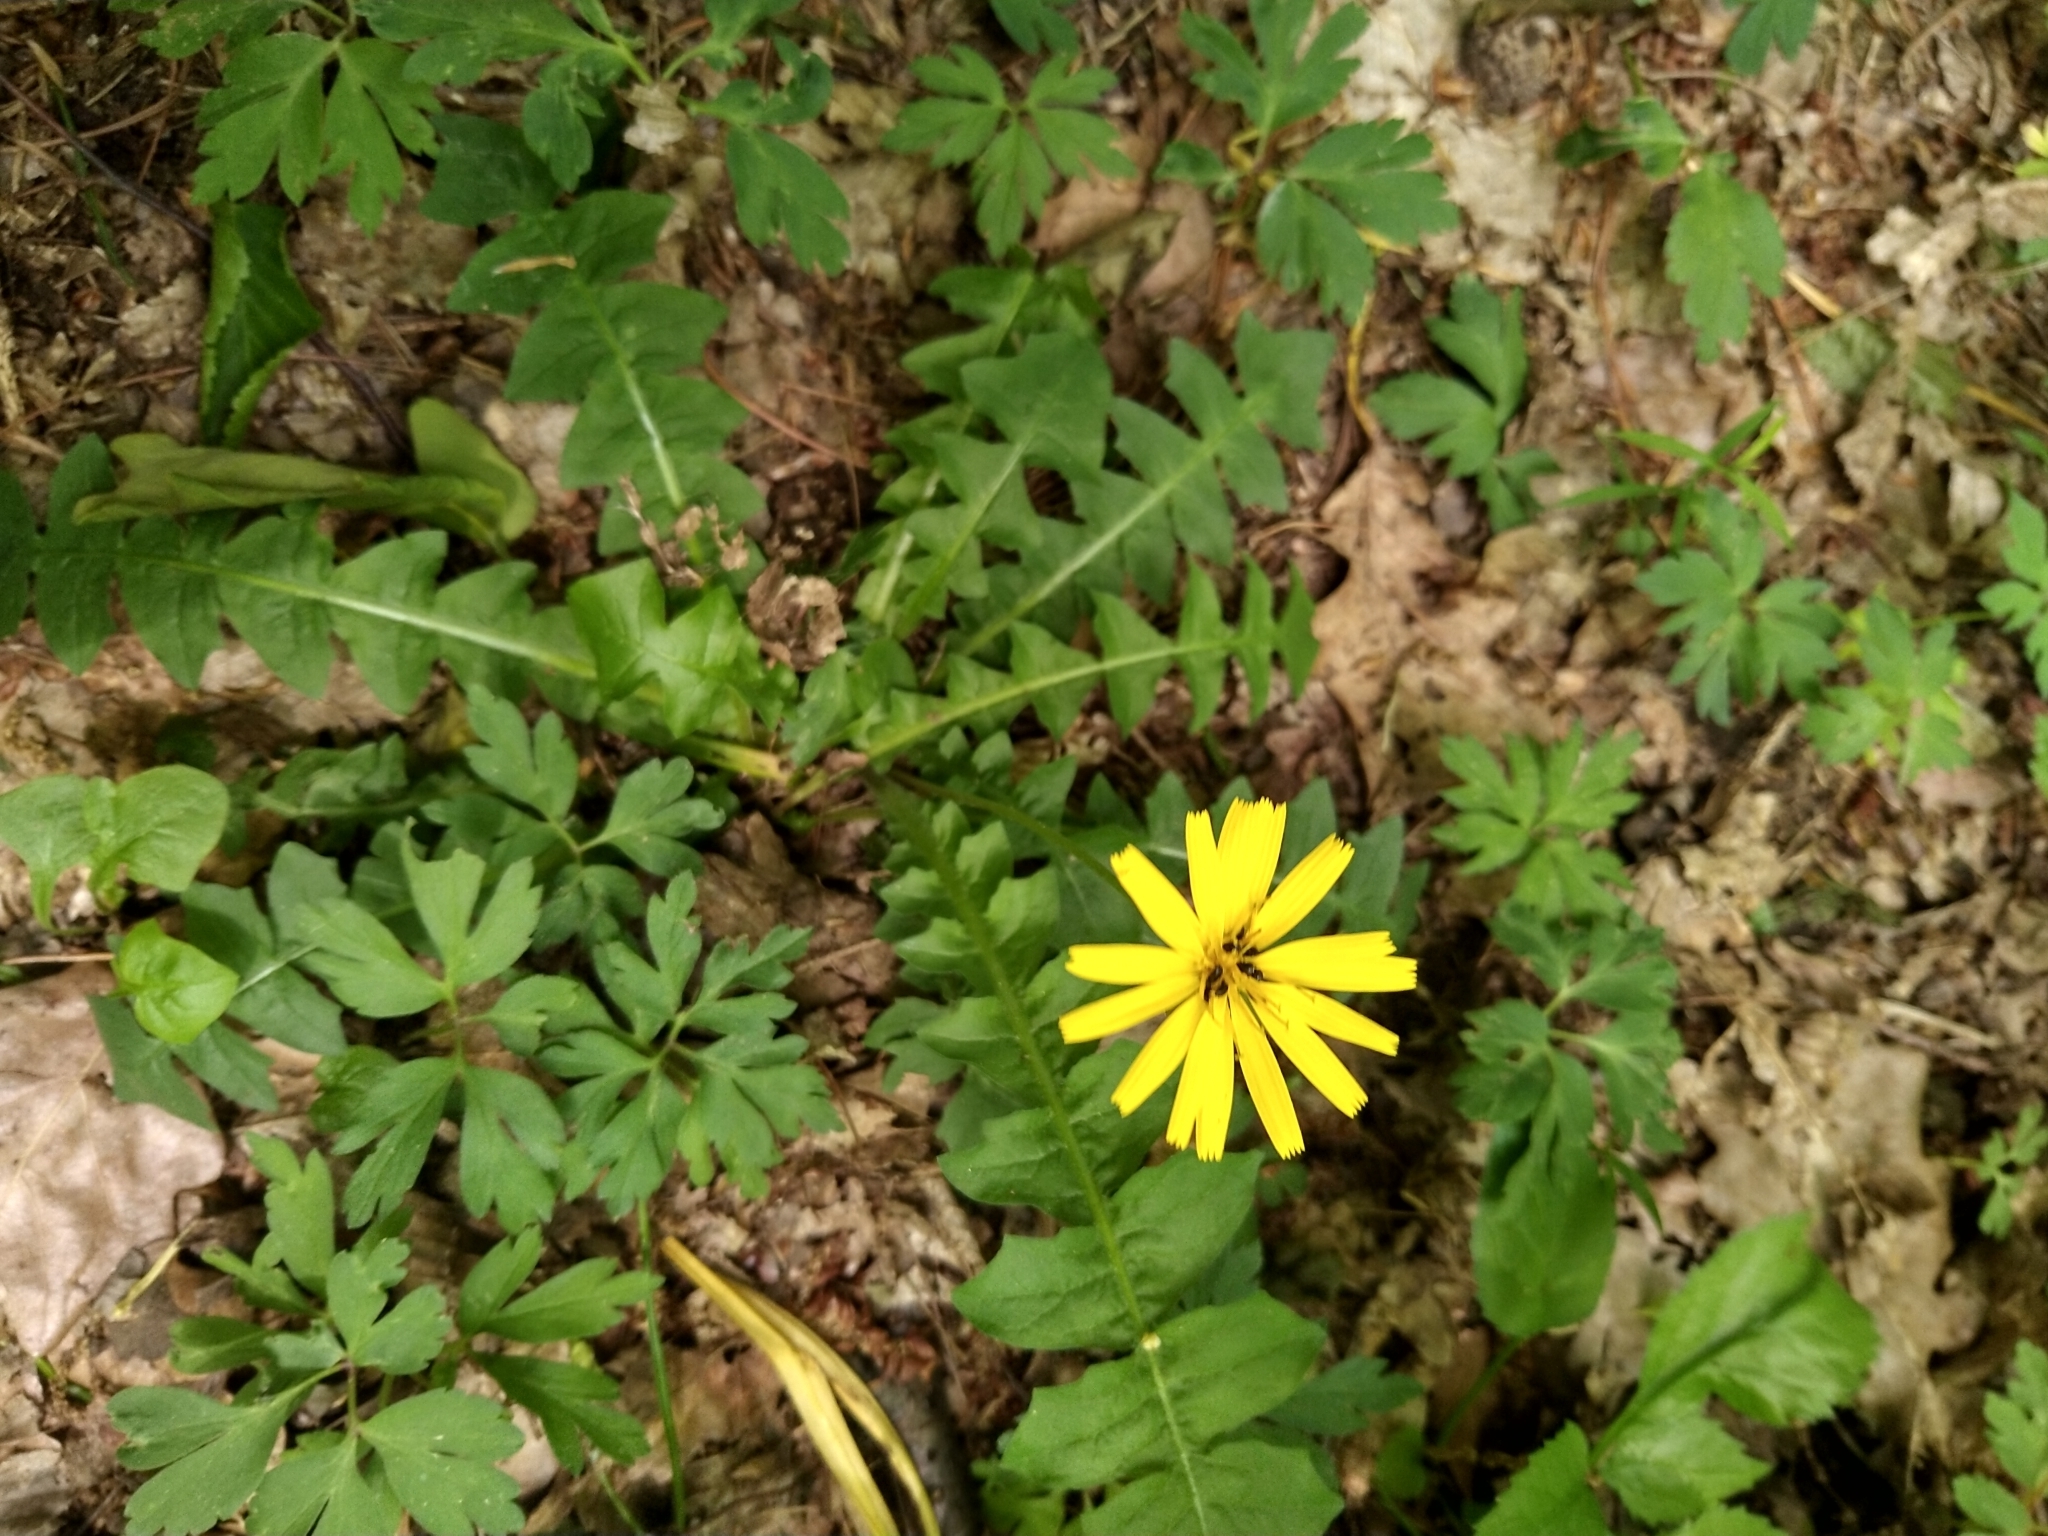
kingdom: Plantae
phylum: Tracheophyta
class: Magnoliopsida
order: Asterales
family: Asteraceae
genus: Aposeris
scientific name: Aposeris foetida
